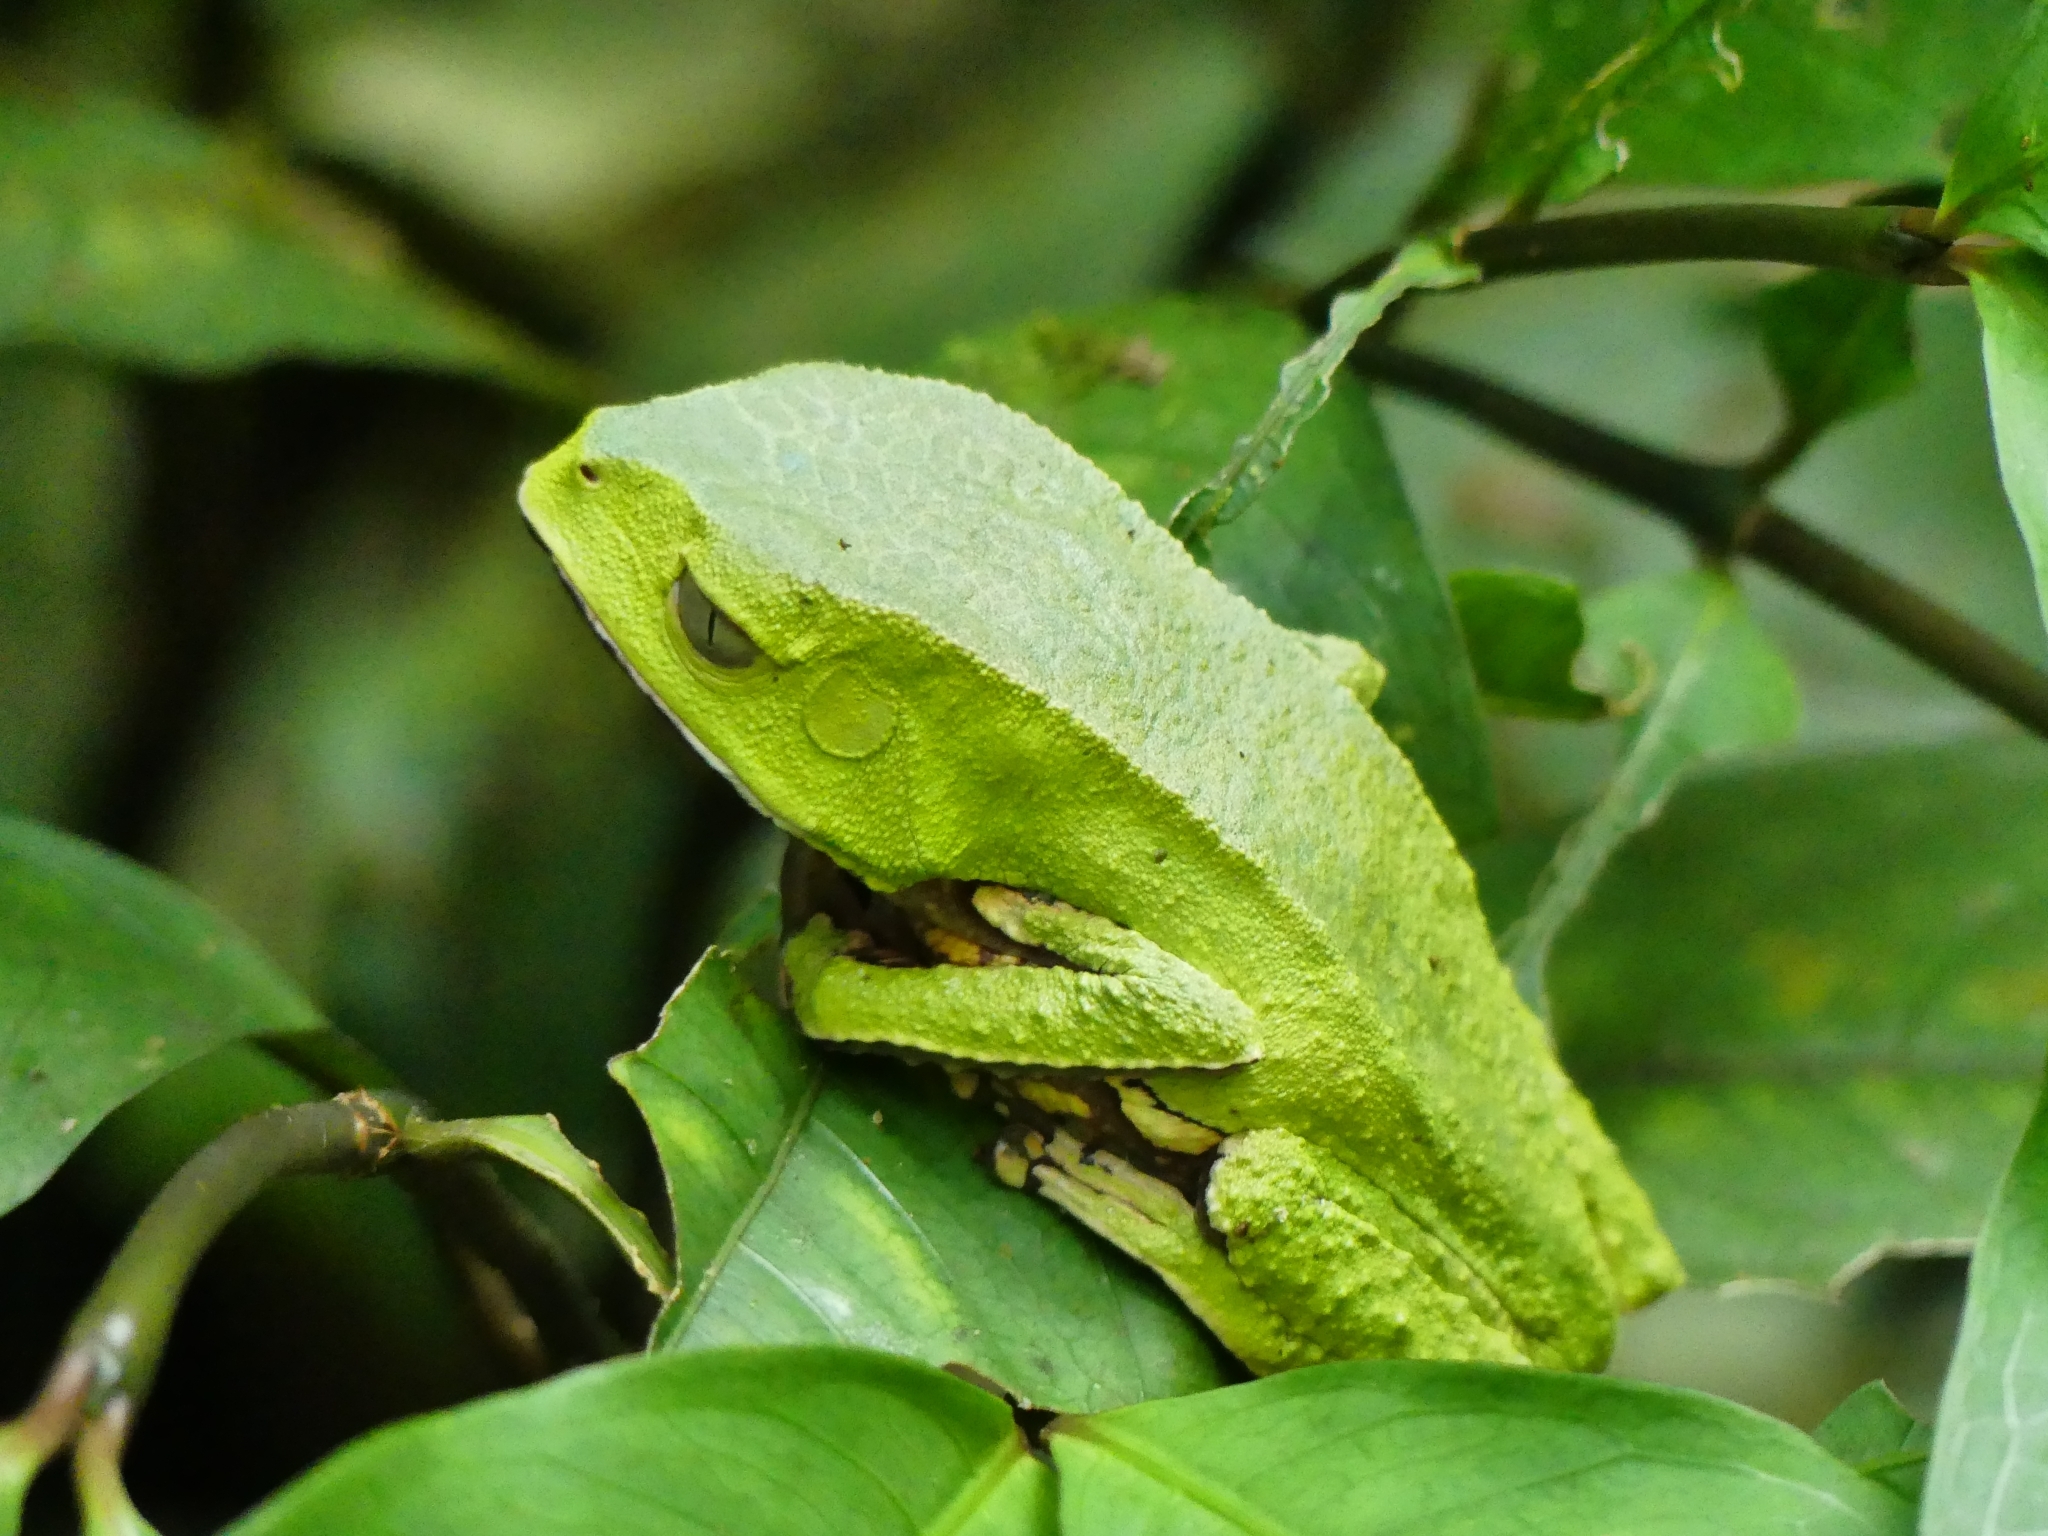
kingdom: Animalia
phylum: Chordata
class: Amphibia
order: Anura
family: Phyllomedusidae
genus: Phyllomedusa
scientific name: Phyllomedusa vaillantii
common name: White-lined leaf frog
